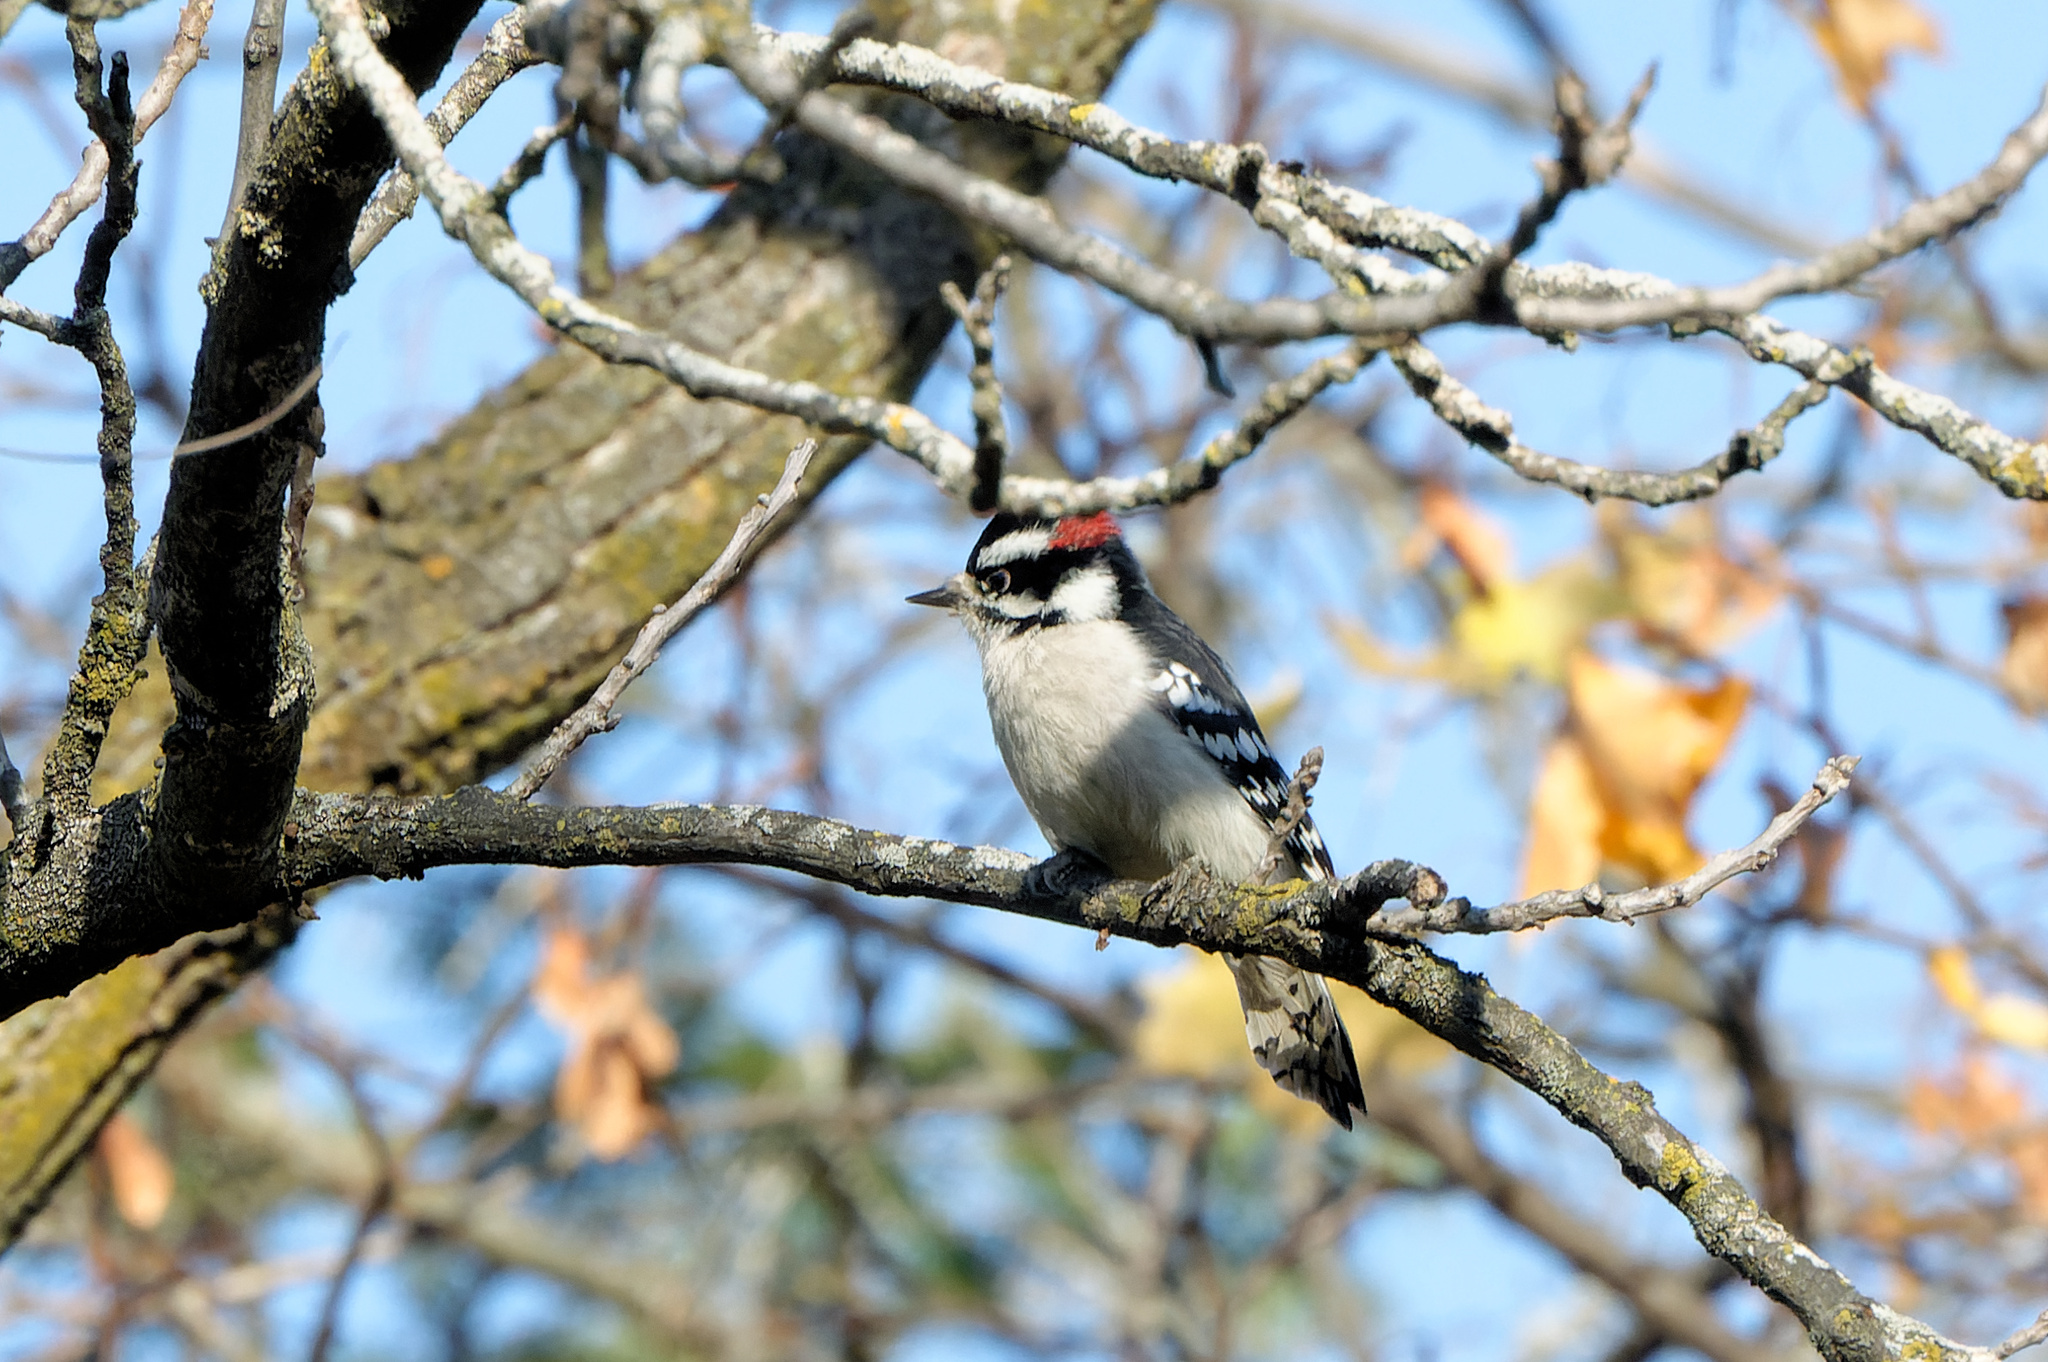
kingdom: Animalia
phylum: Chordata
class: Aves
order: Piciformes
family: Picidae
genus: Dryobates
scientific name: Dryobates pubescens
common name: Downy woodpecker
